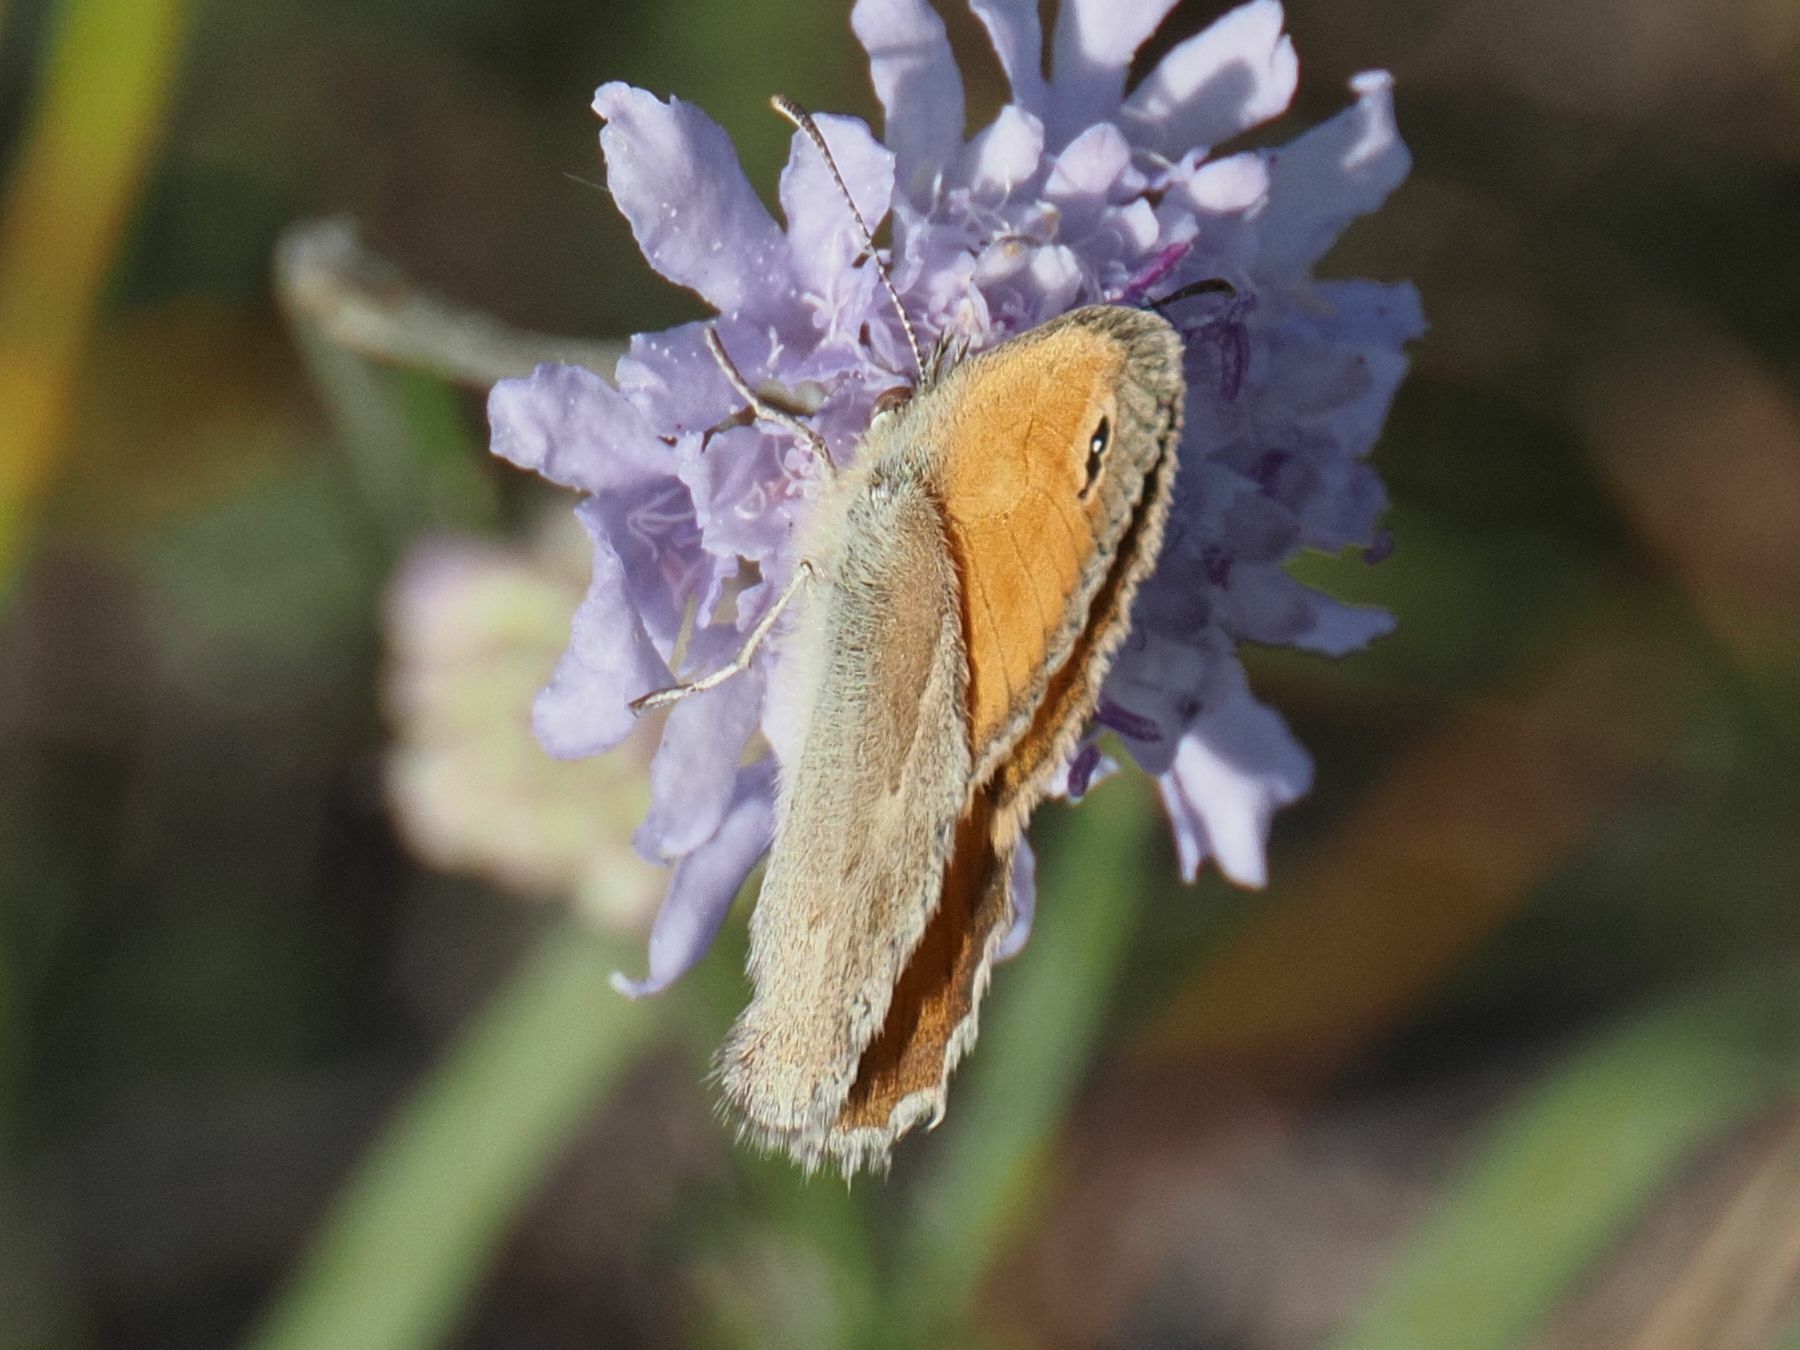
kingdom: Animalia
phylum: Arthropoda
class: Insecta
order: Lepidoptera
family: Nymphalidae
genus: Coenonympha
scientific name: Coenonympha pamphilus
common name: Small heath
